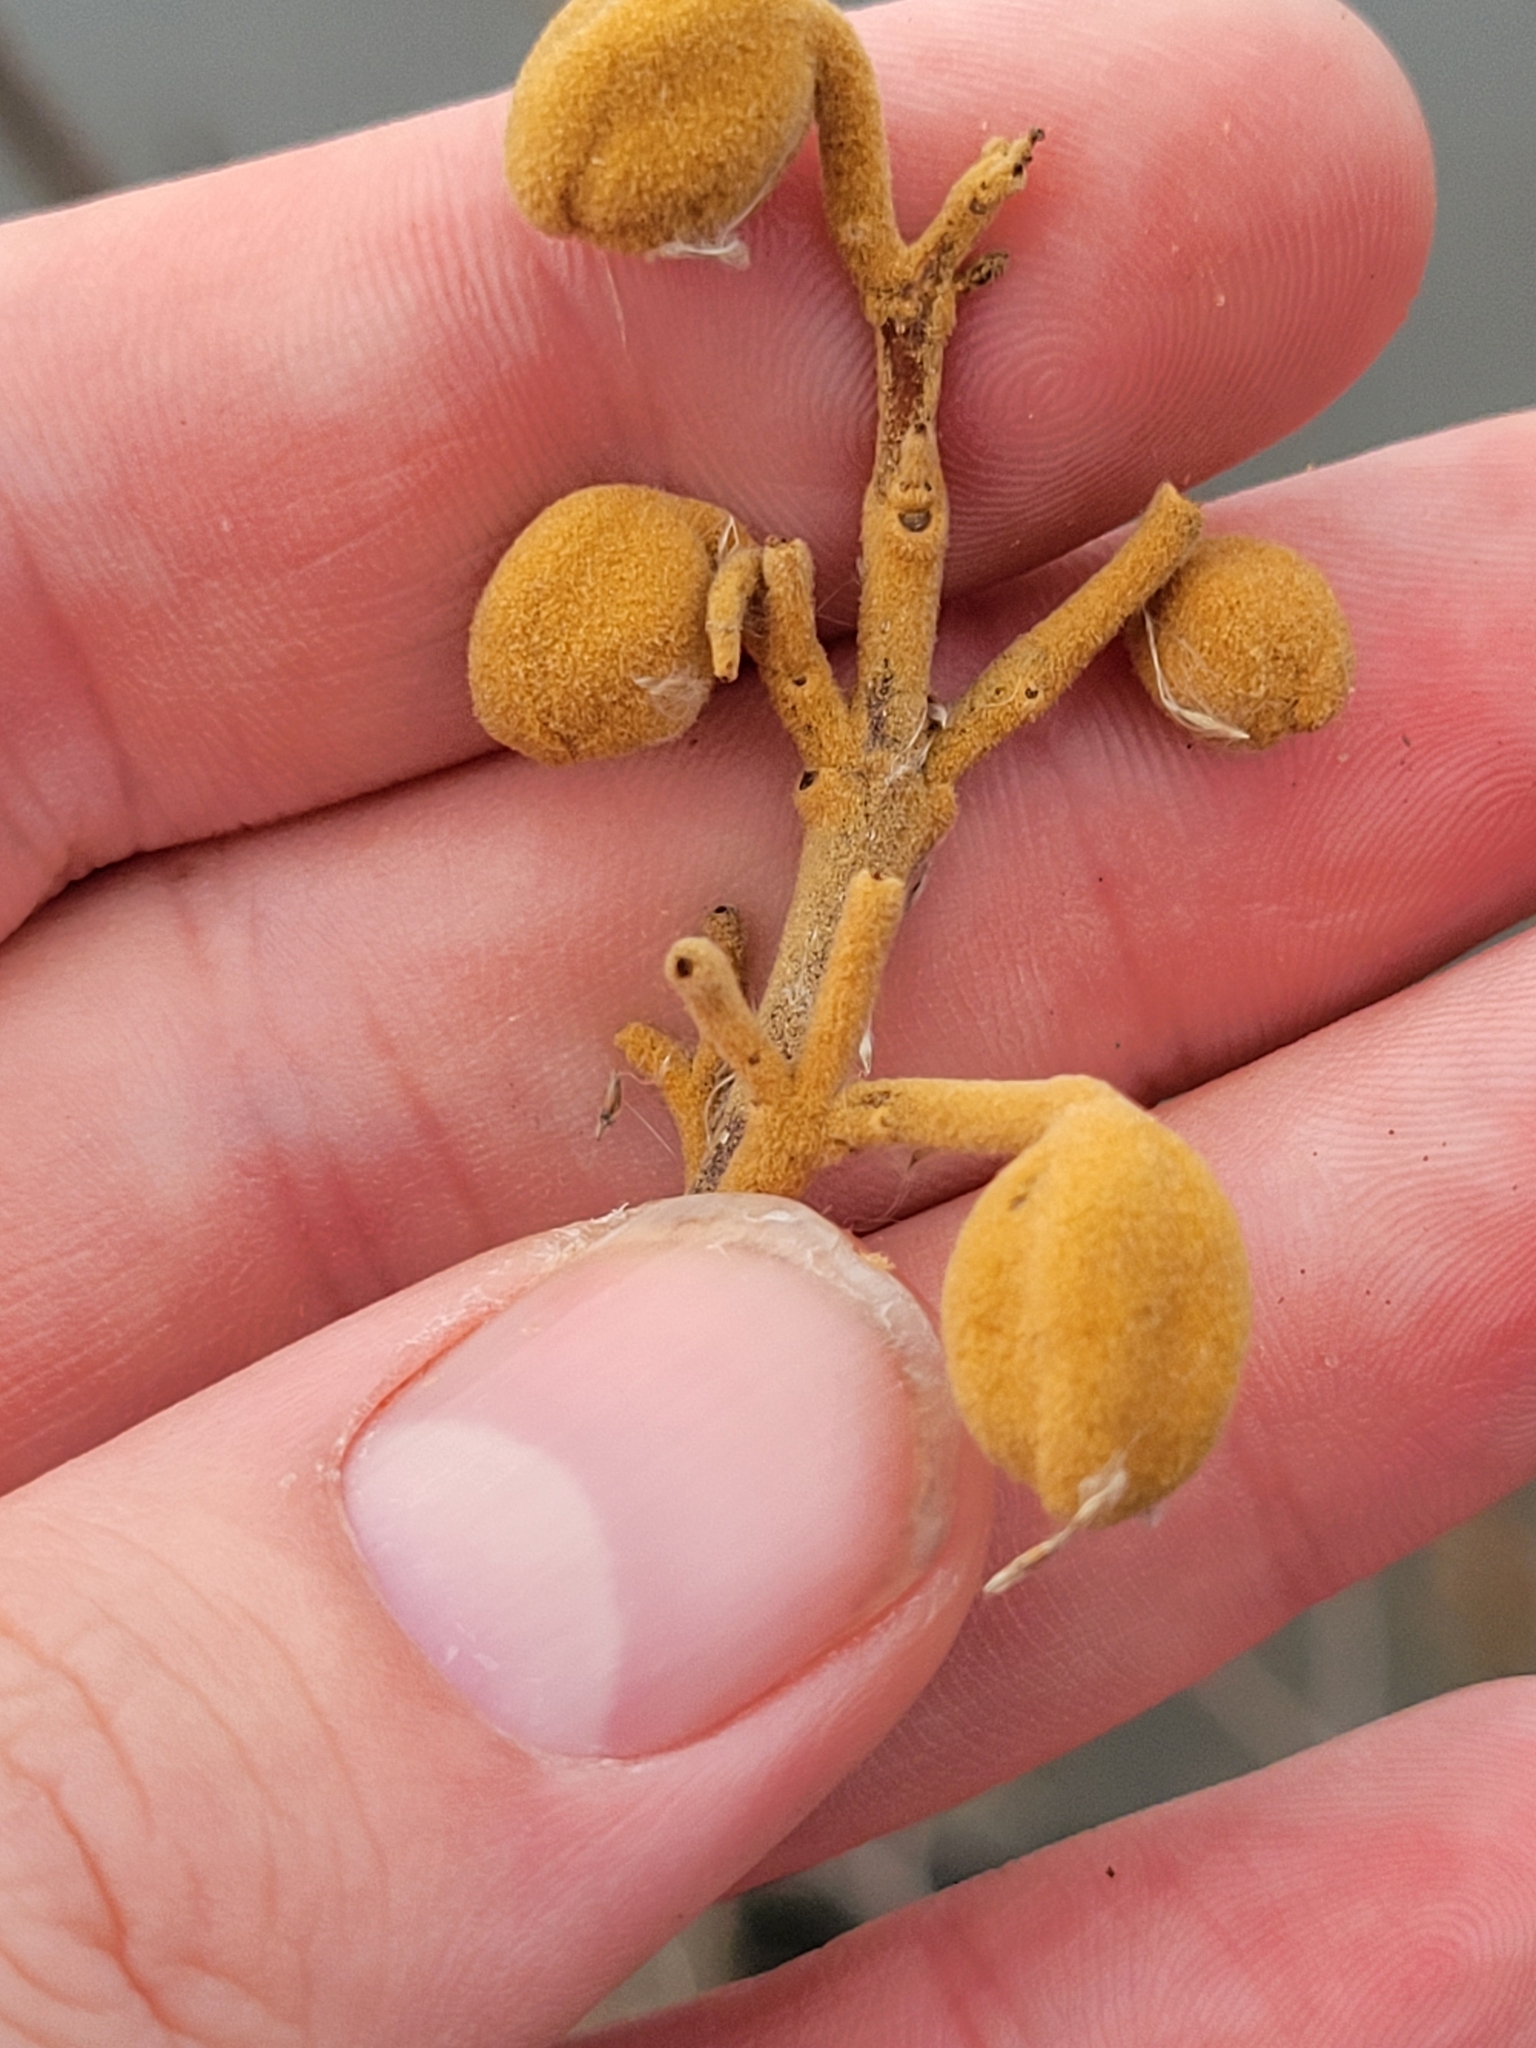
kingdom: Plantae
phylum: Tracheophyta
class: Magnoliopsida
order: Lamiales
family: Paulowniaceae
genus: Paulownia
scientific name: Paulownia tomentosa
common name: Foxglove-tree
